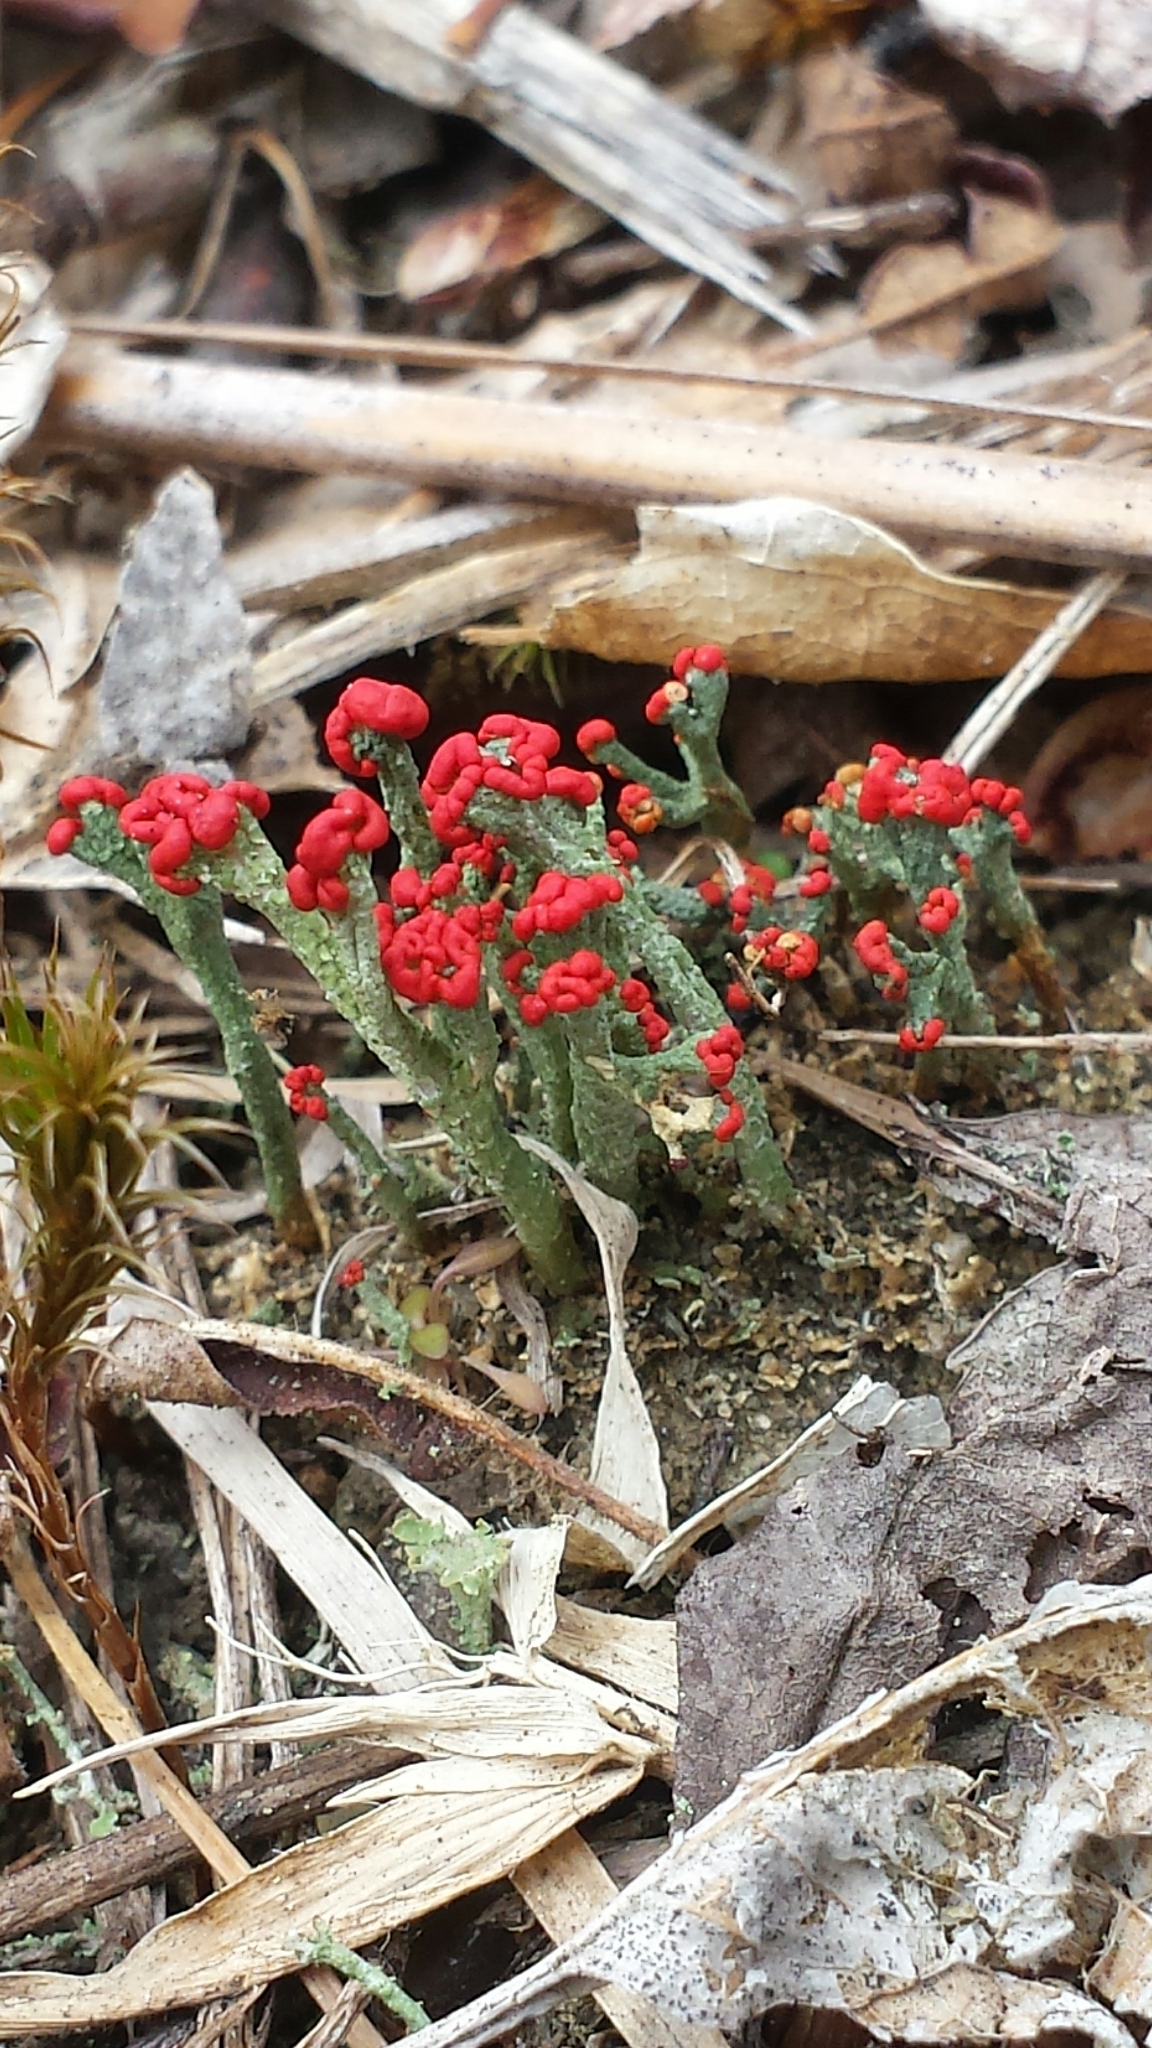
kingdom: Fungi
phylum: Ascomycota
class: Lecanoromycetes
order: Lecanorales
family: Cladoniaceae
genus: Cladonia
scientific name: Cladonia cristatella
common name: British soldier lichen
